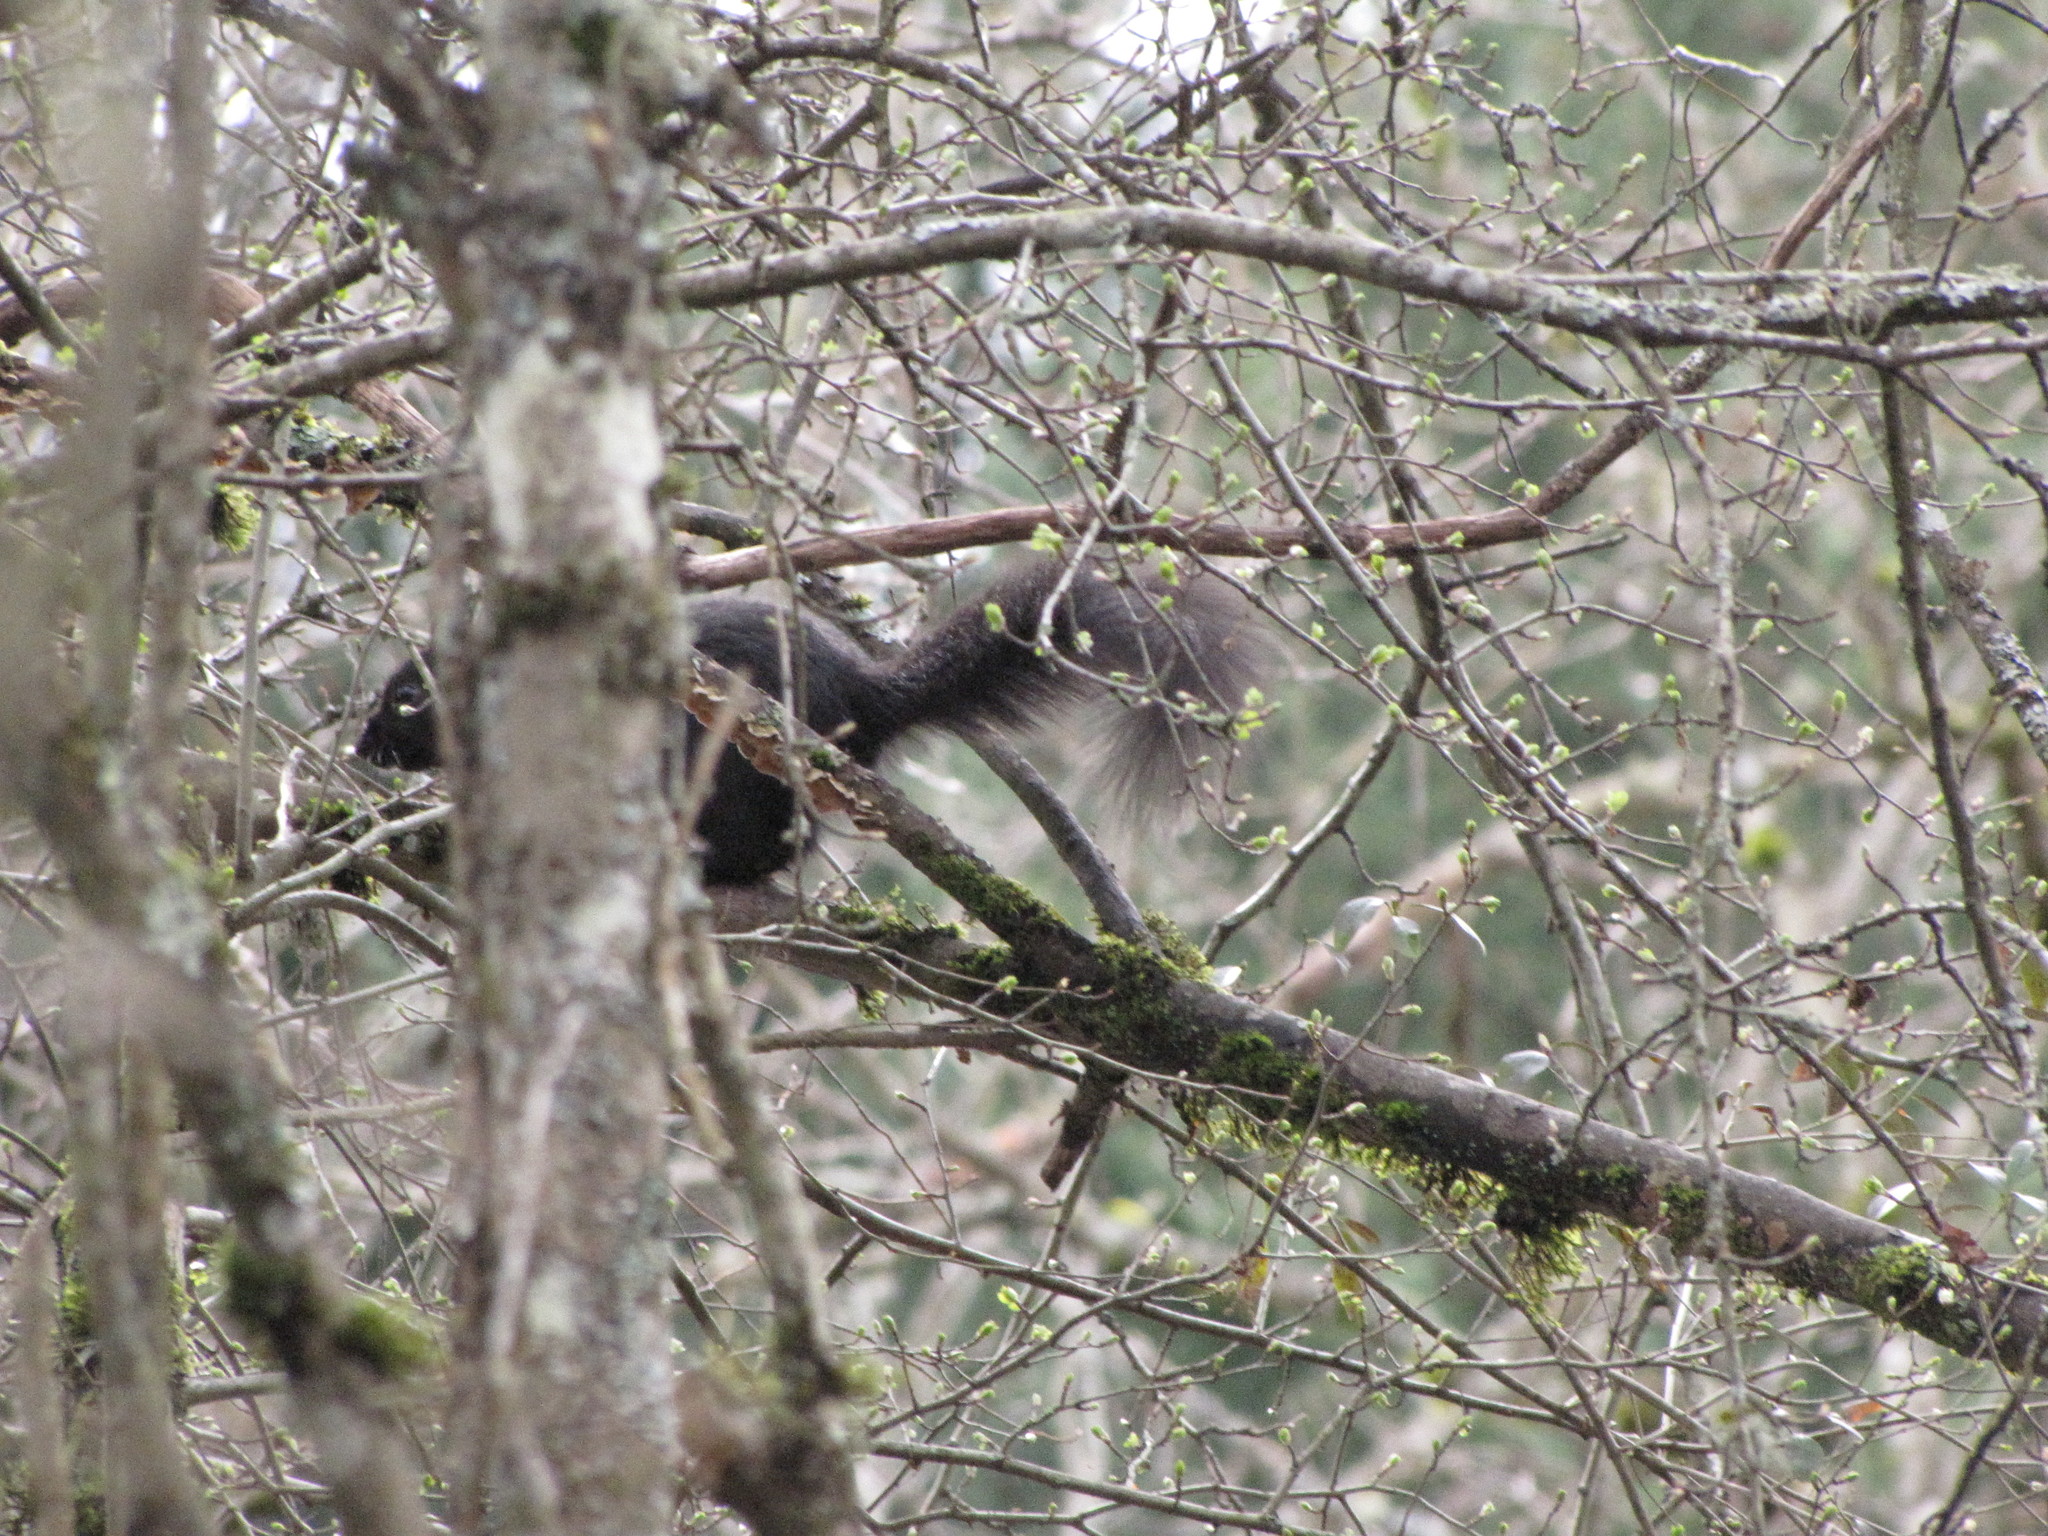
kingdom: Animalia
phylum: Chordata
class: Mammalia
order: Rodentia
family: Sciuridae
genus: Sciurus
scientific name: Sciurus carolinensis
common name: Eastern gray squirrel
